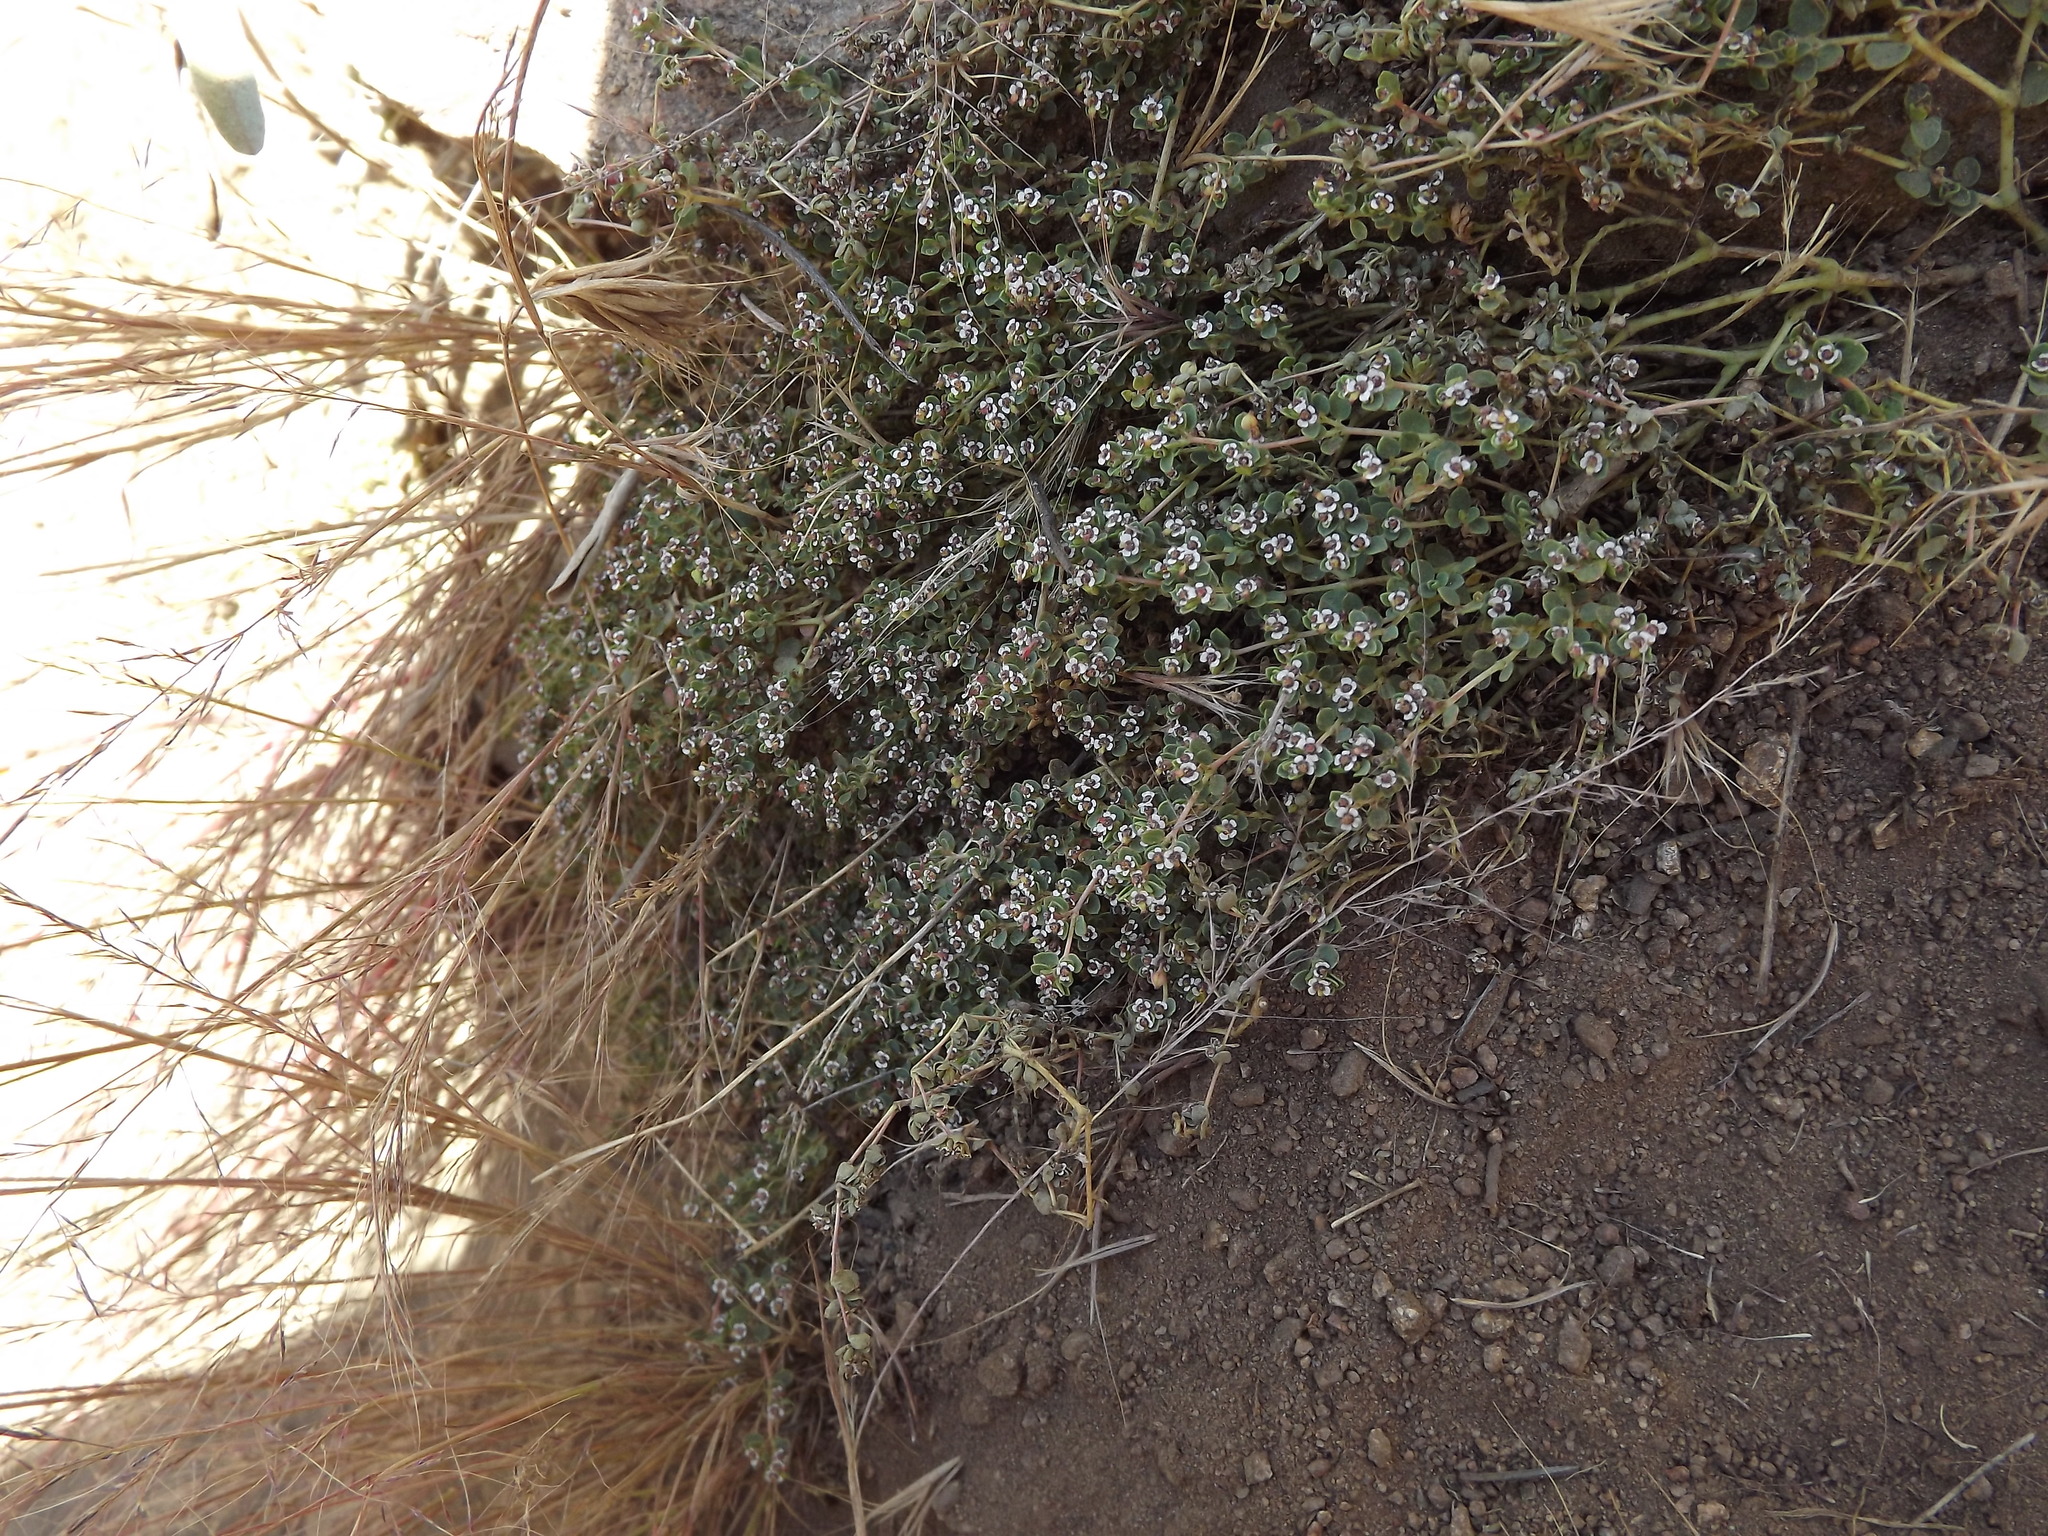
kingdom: Plantae
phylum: Tracheophyta
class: Magnoliopsida
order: Malpighiales
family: Euphorbiaceae
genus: Euphorbia
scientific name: Euphorbia polycarpa
